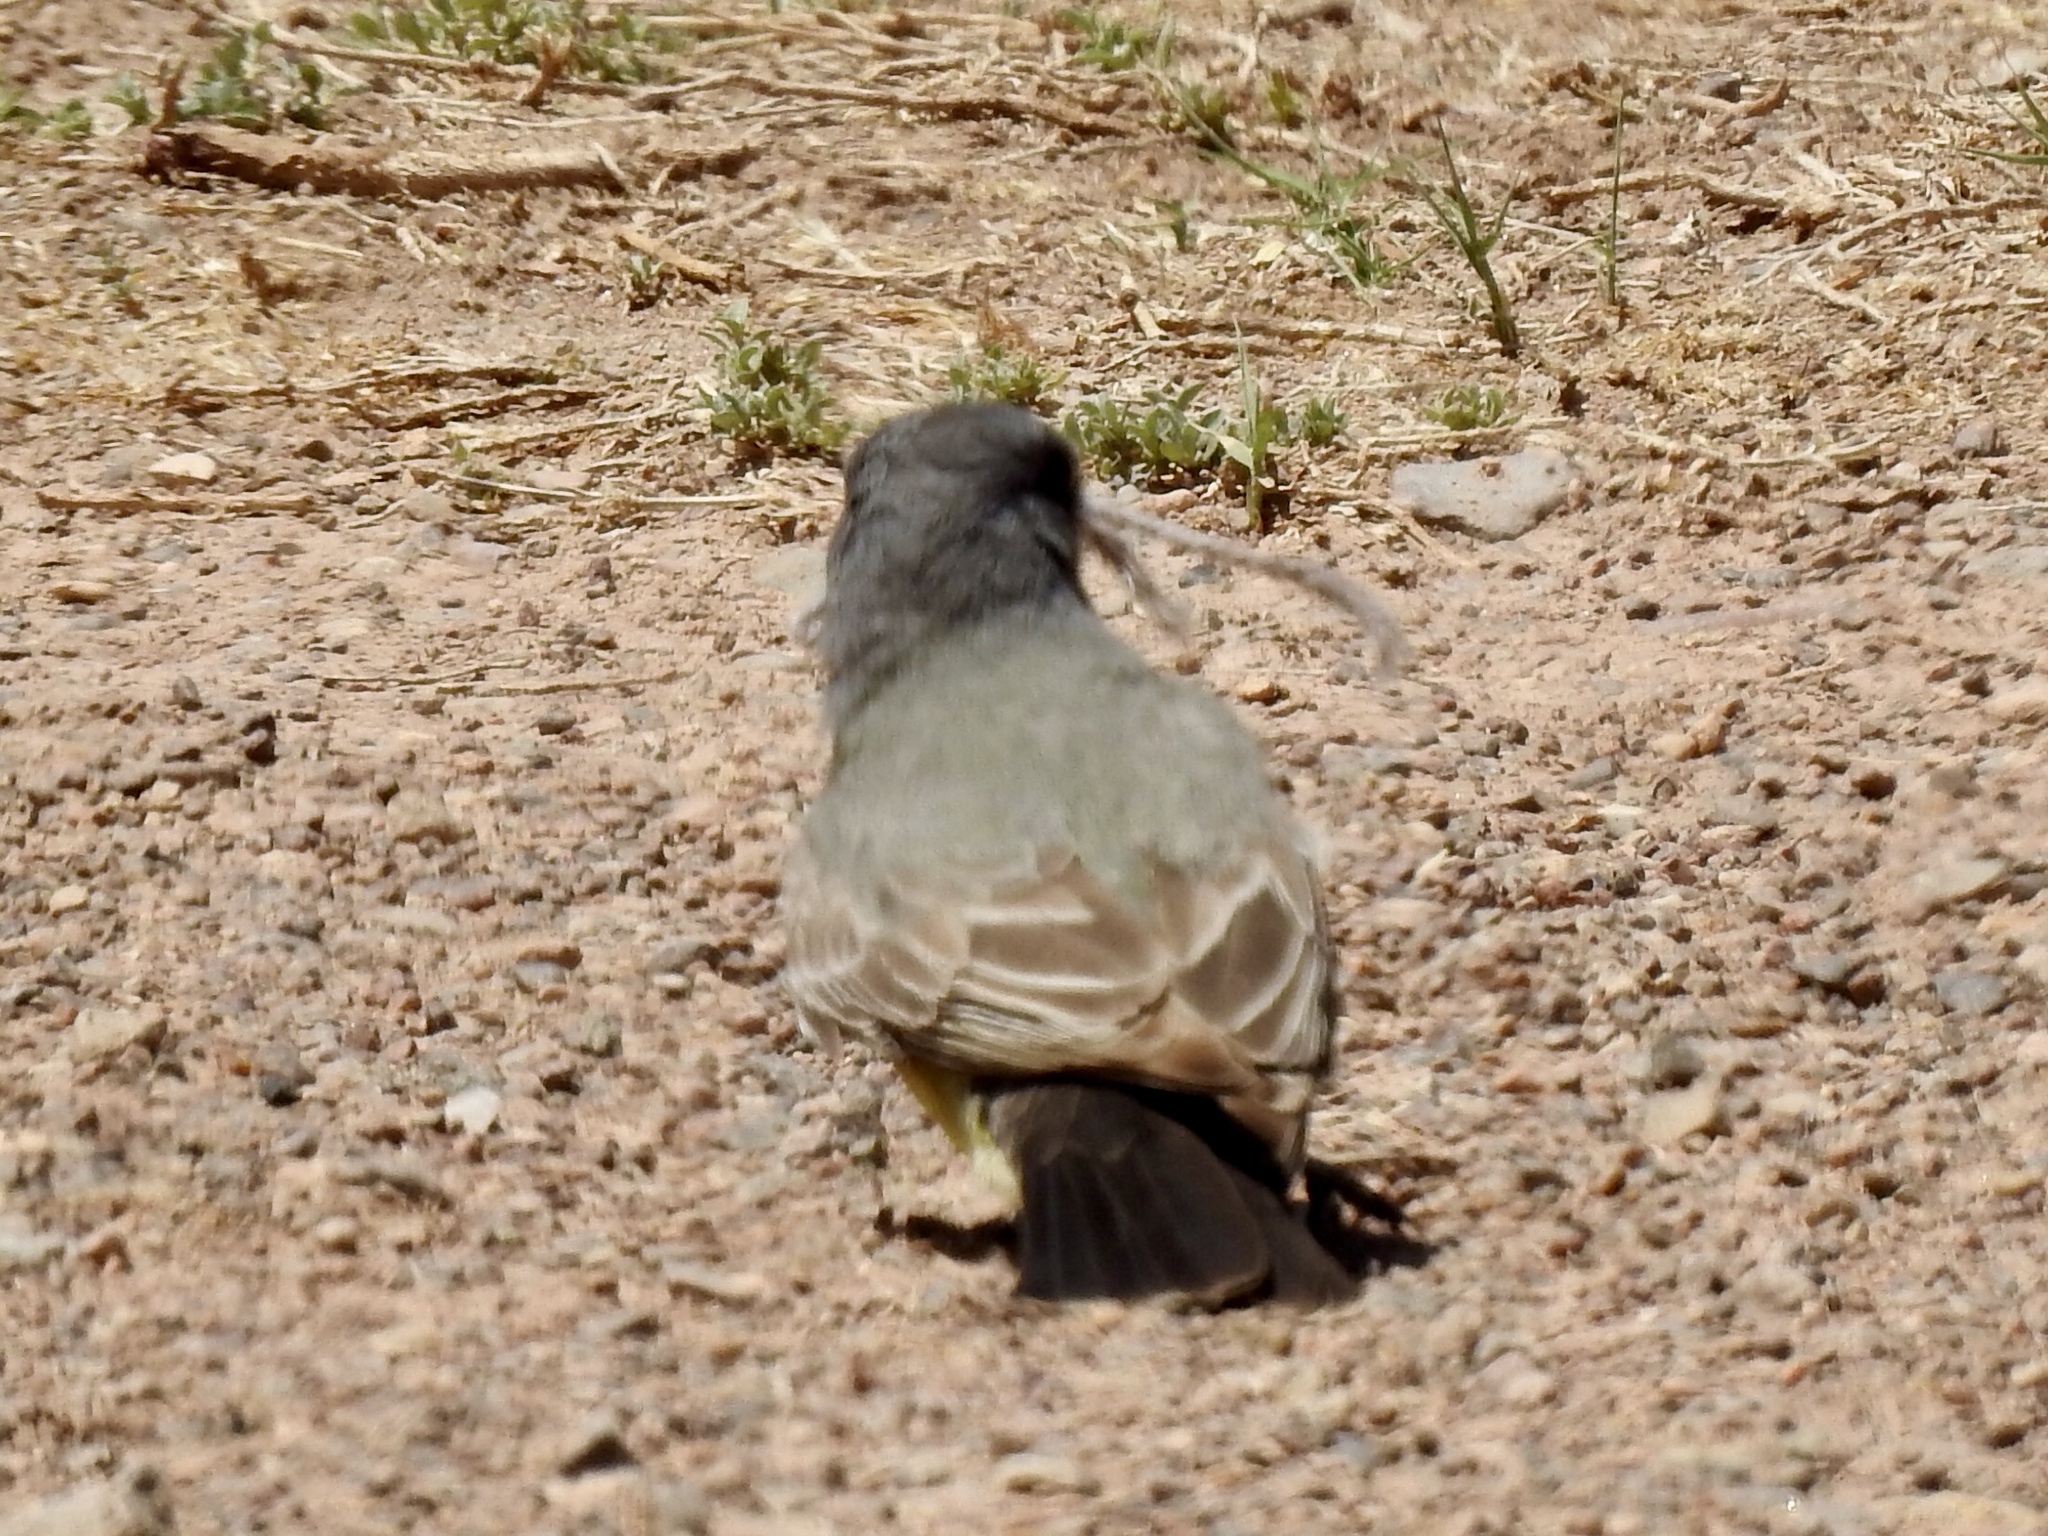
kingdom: Animalia
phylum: Chordata
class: Aves
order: Passeriformes
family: Tyrannidae
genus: Tyrannus
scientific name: Tyrannus vociferans
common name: Cassin's kingbird
